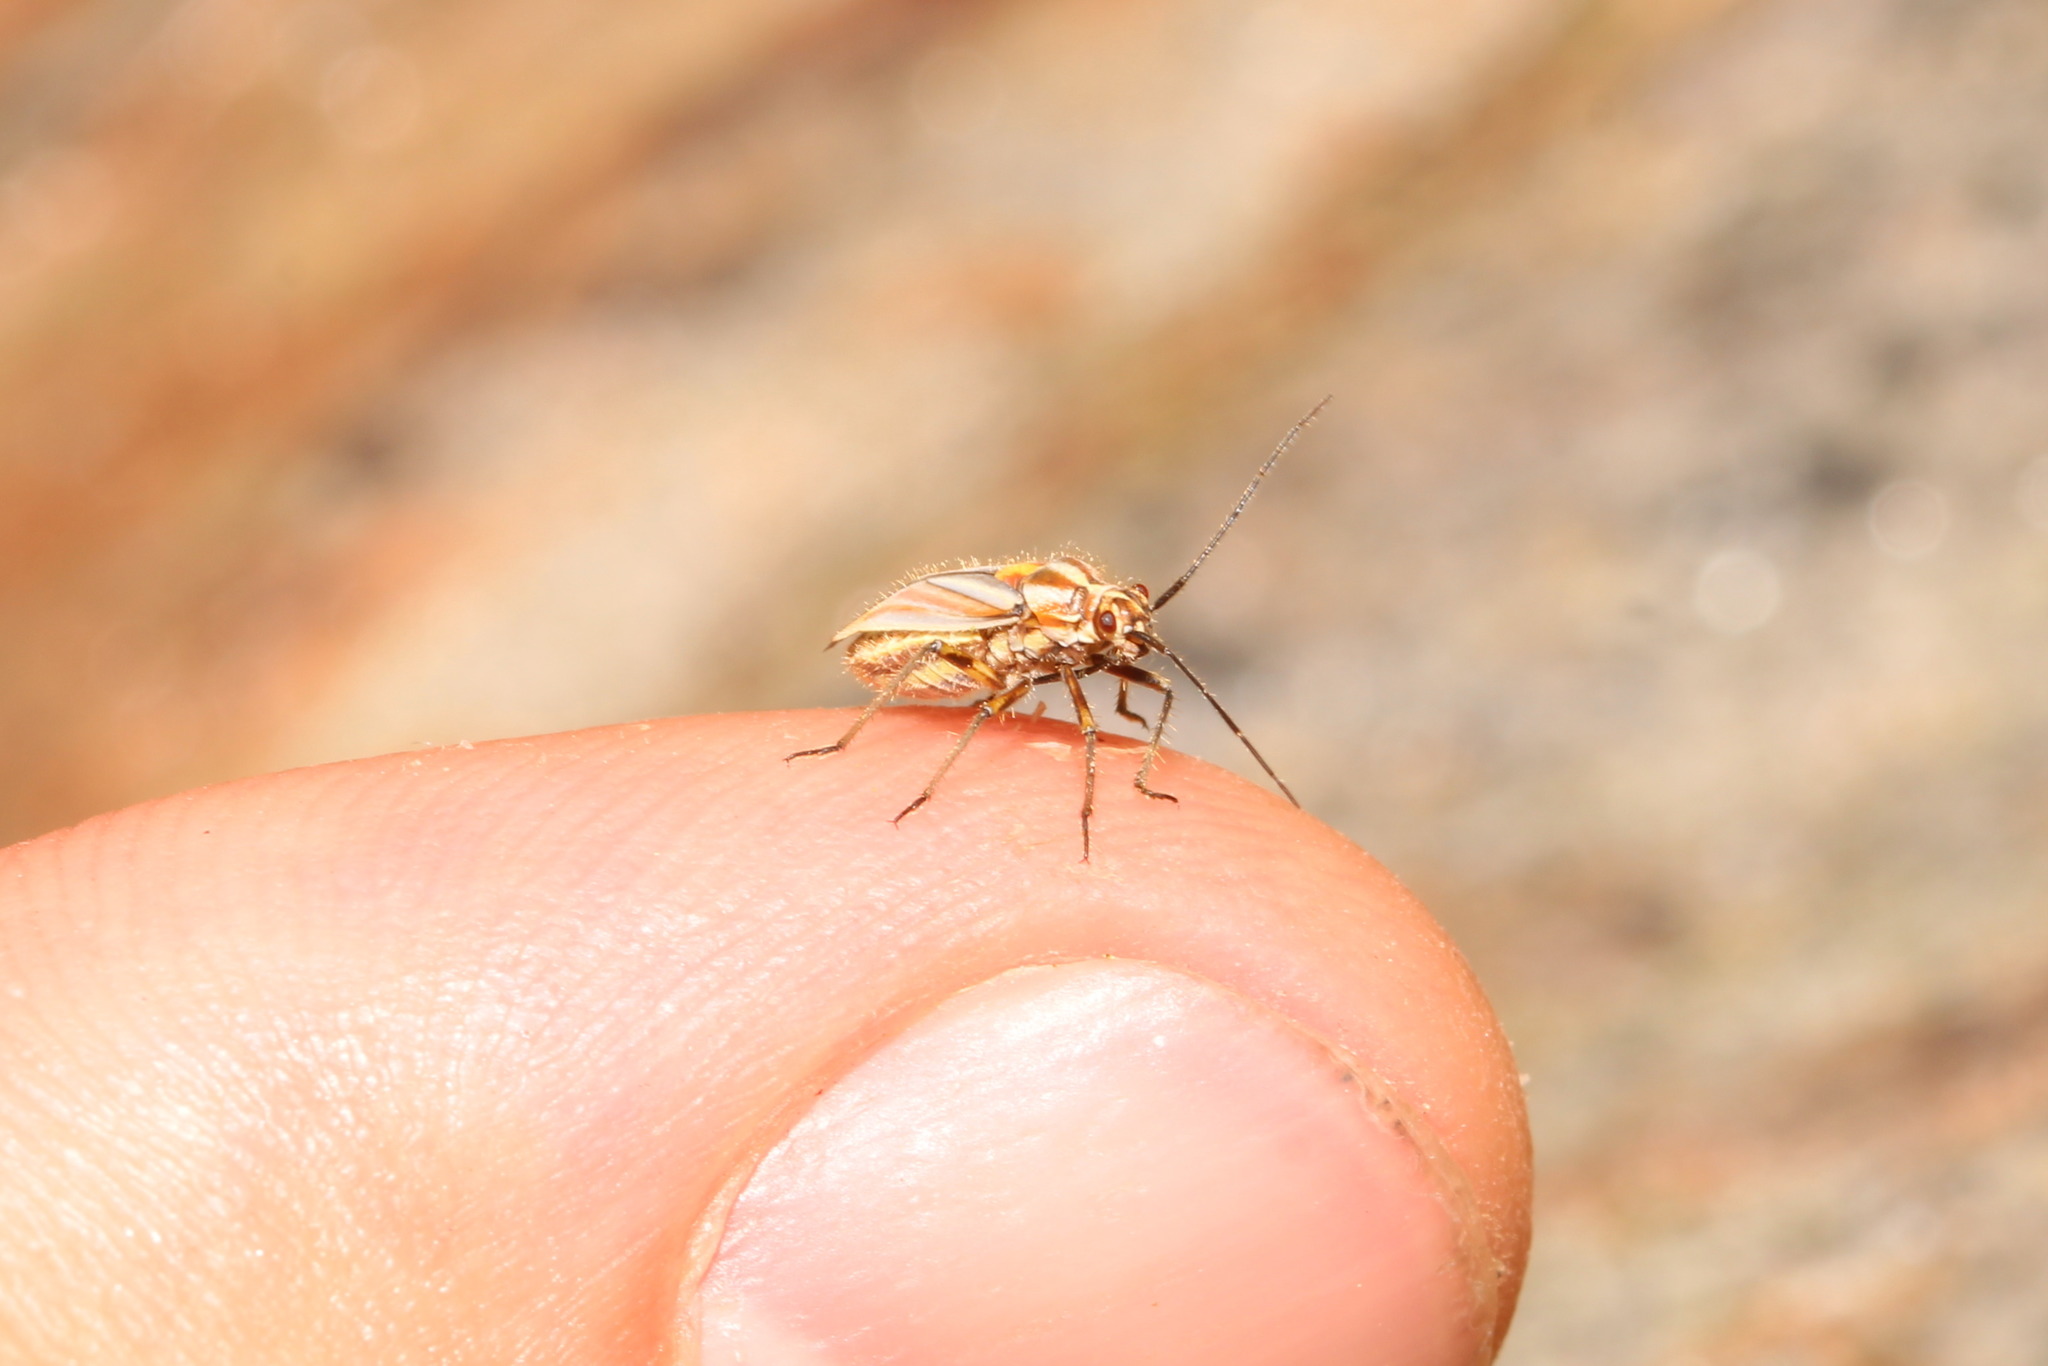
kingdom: Animalia
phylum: Arthropoda
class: Insecta
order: Hemiptera
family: Miridae
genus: Horistus
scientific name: Horistus orientalis
